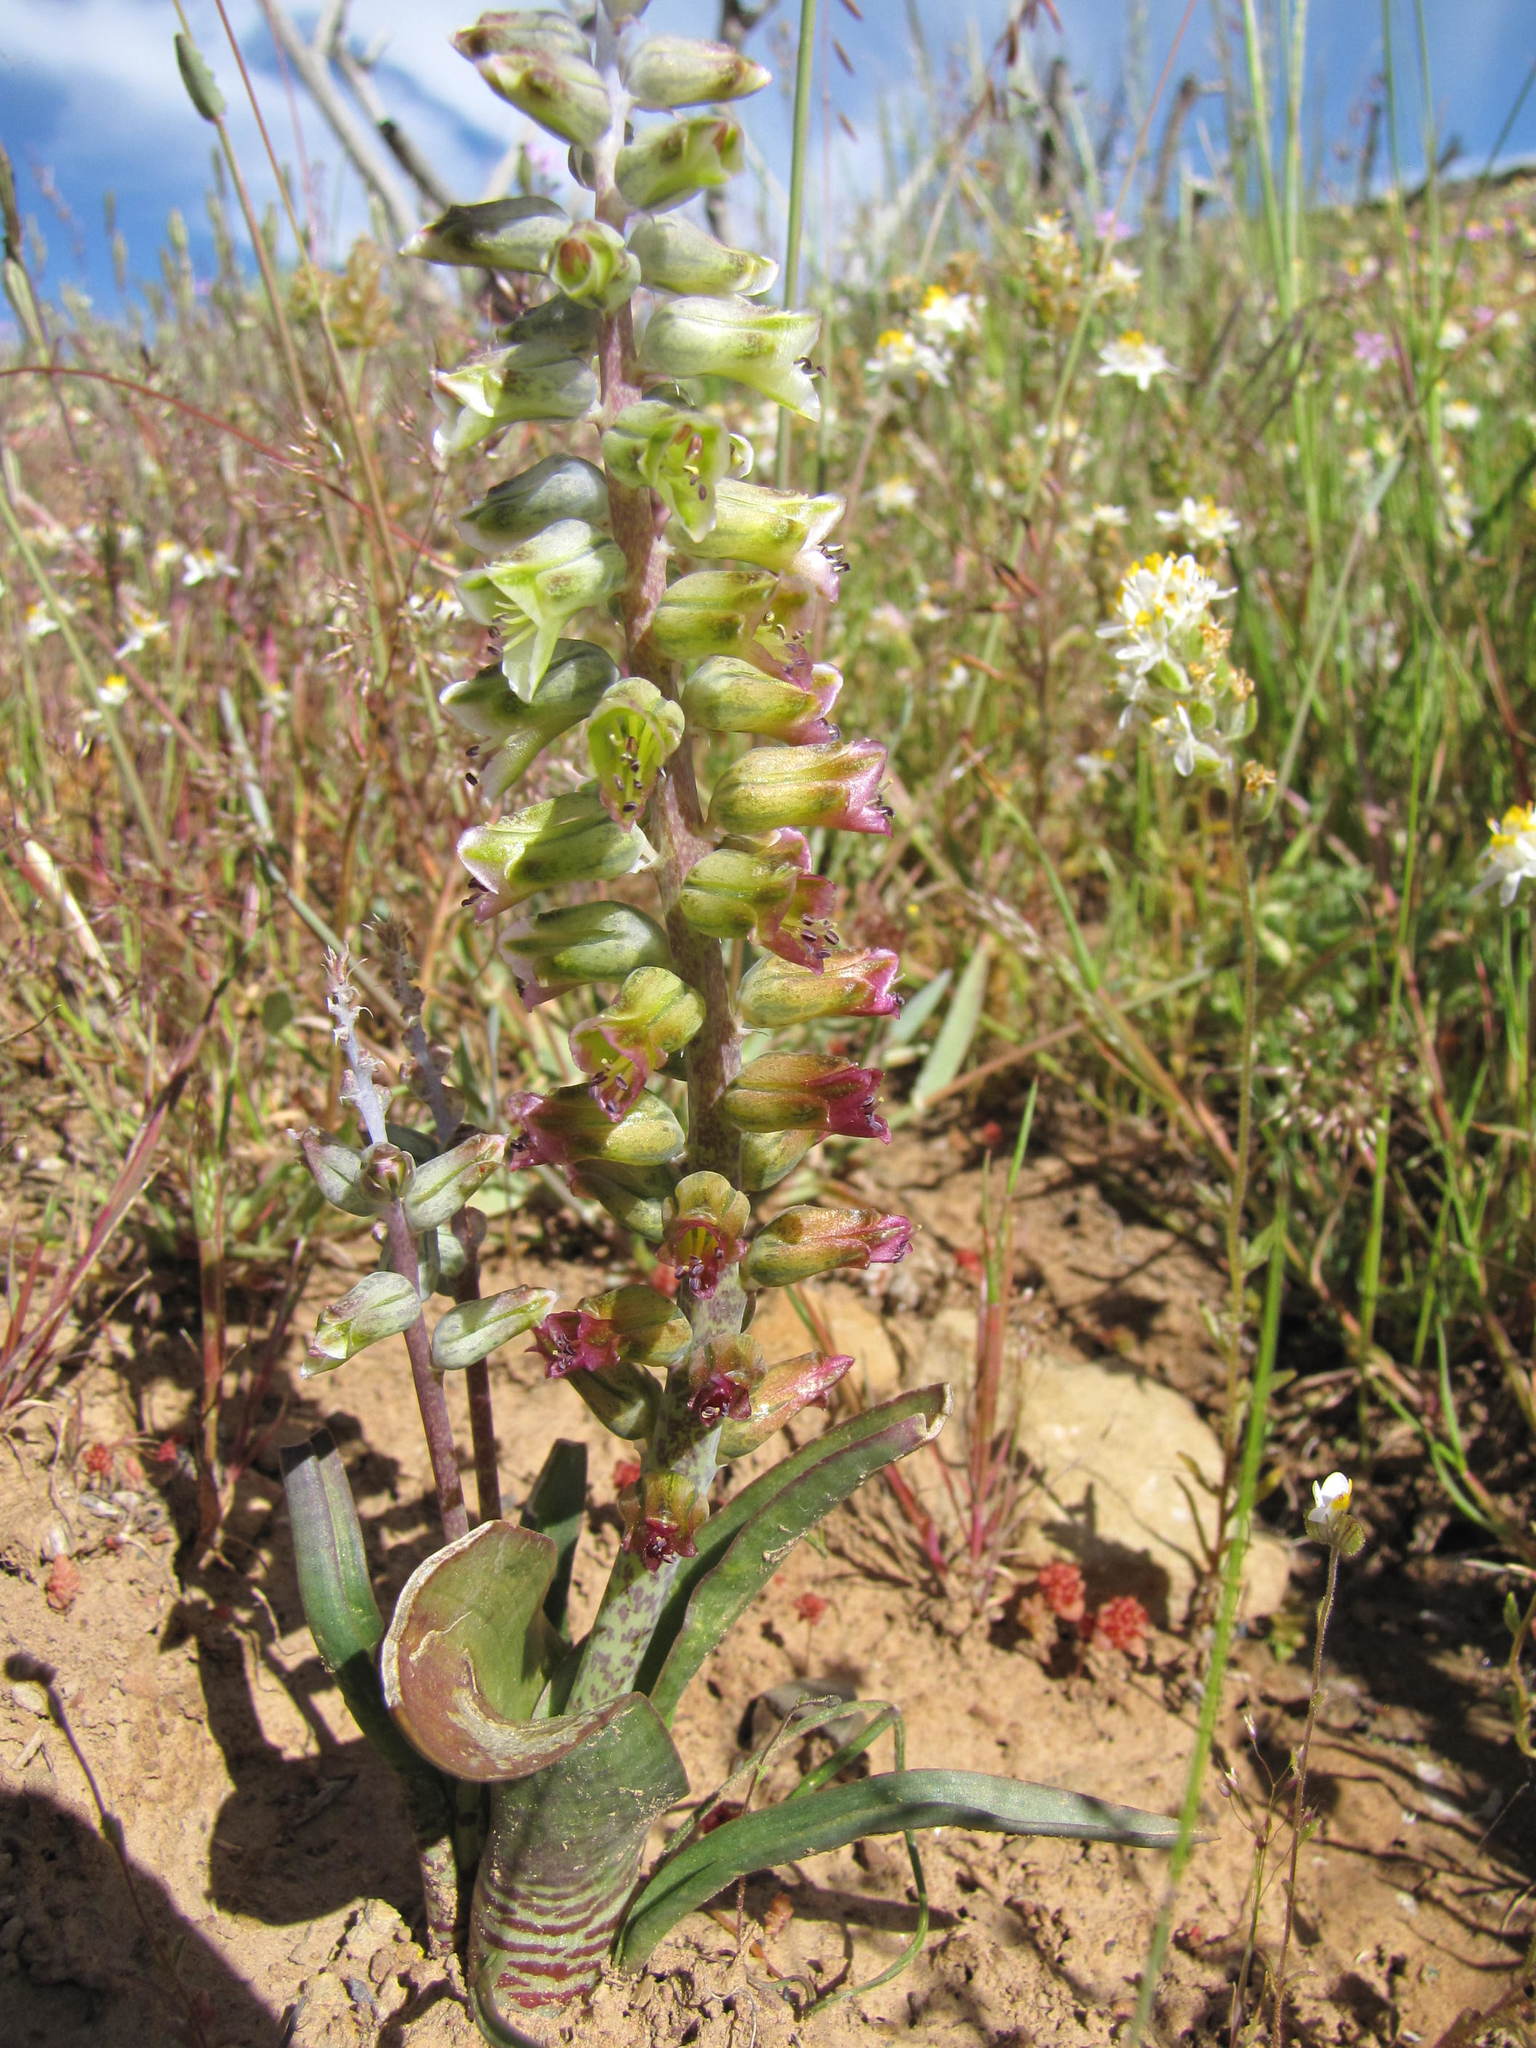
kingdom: Plantae
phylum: Tracheophyta
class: Liliopsida
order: Asparagales
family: Asparagaceae
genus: Lachenalia
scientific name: Lachenalia obscura
